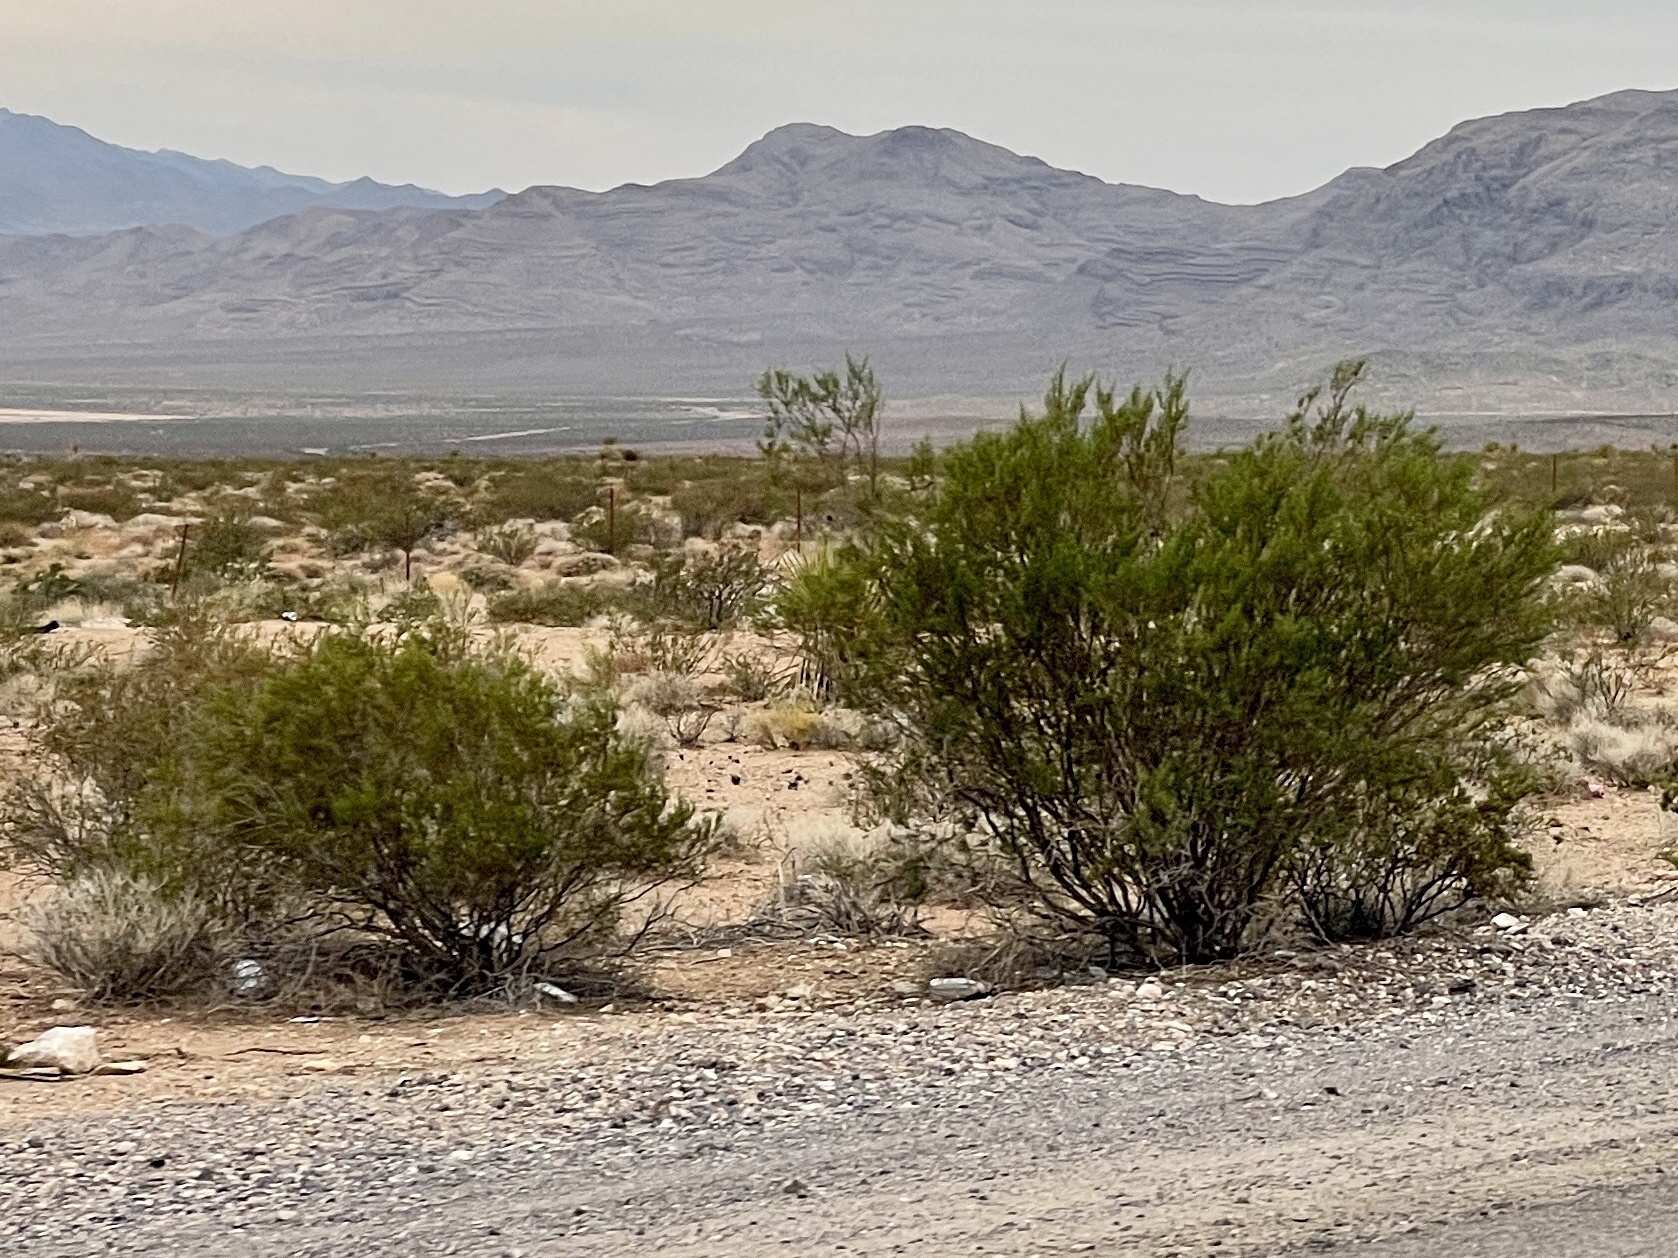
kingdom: Plantae
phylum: Tracheophyta
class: Magnoliopsida
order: Zygophyllales
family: Zygophyllaceae
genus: Larrea
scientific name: Larrea tridentata
